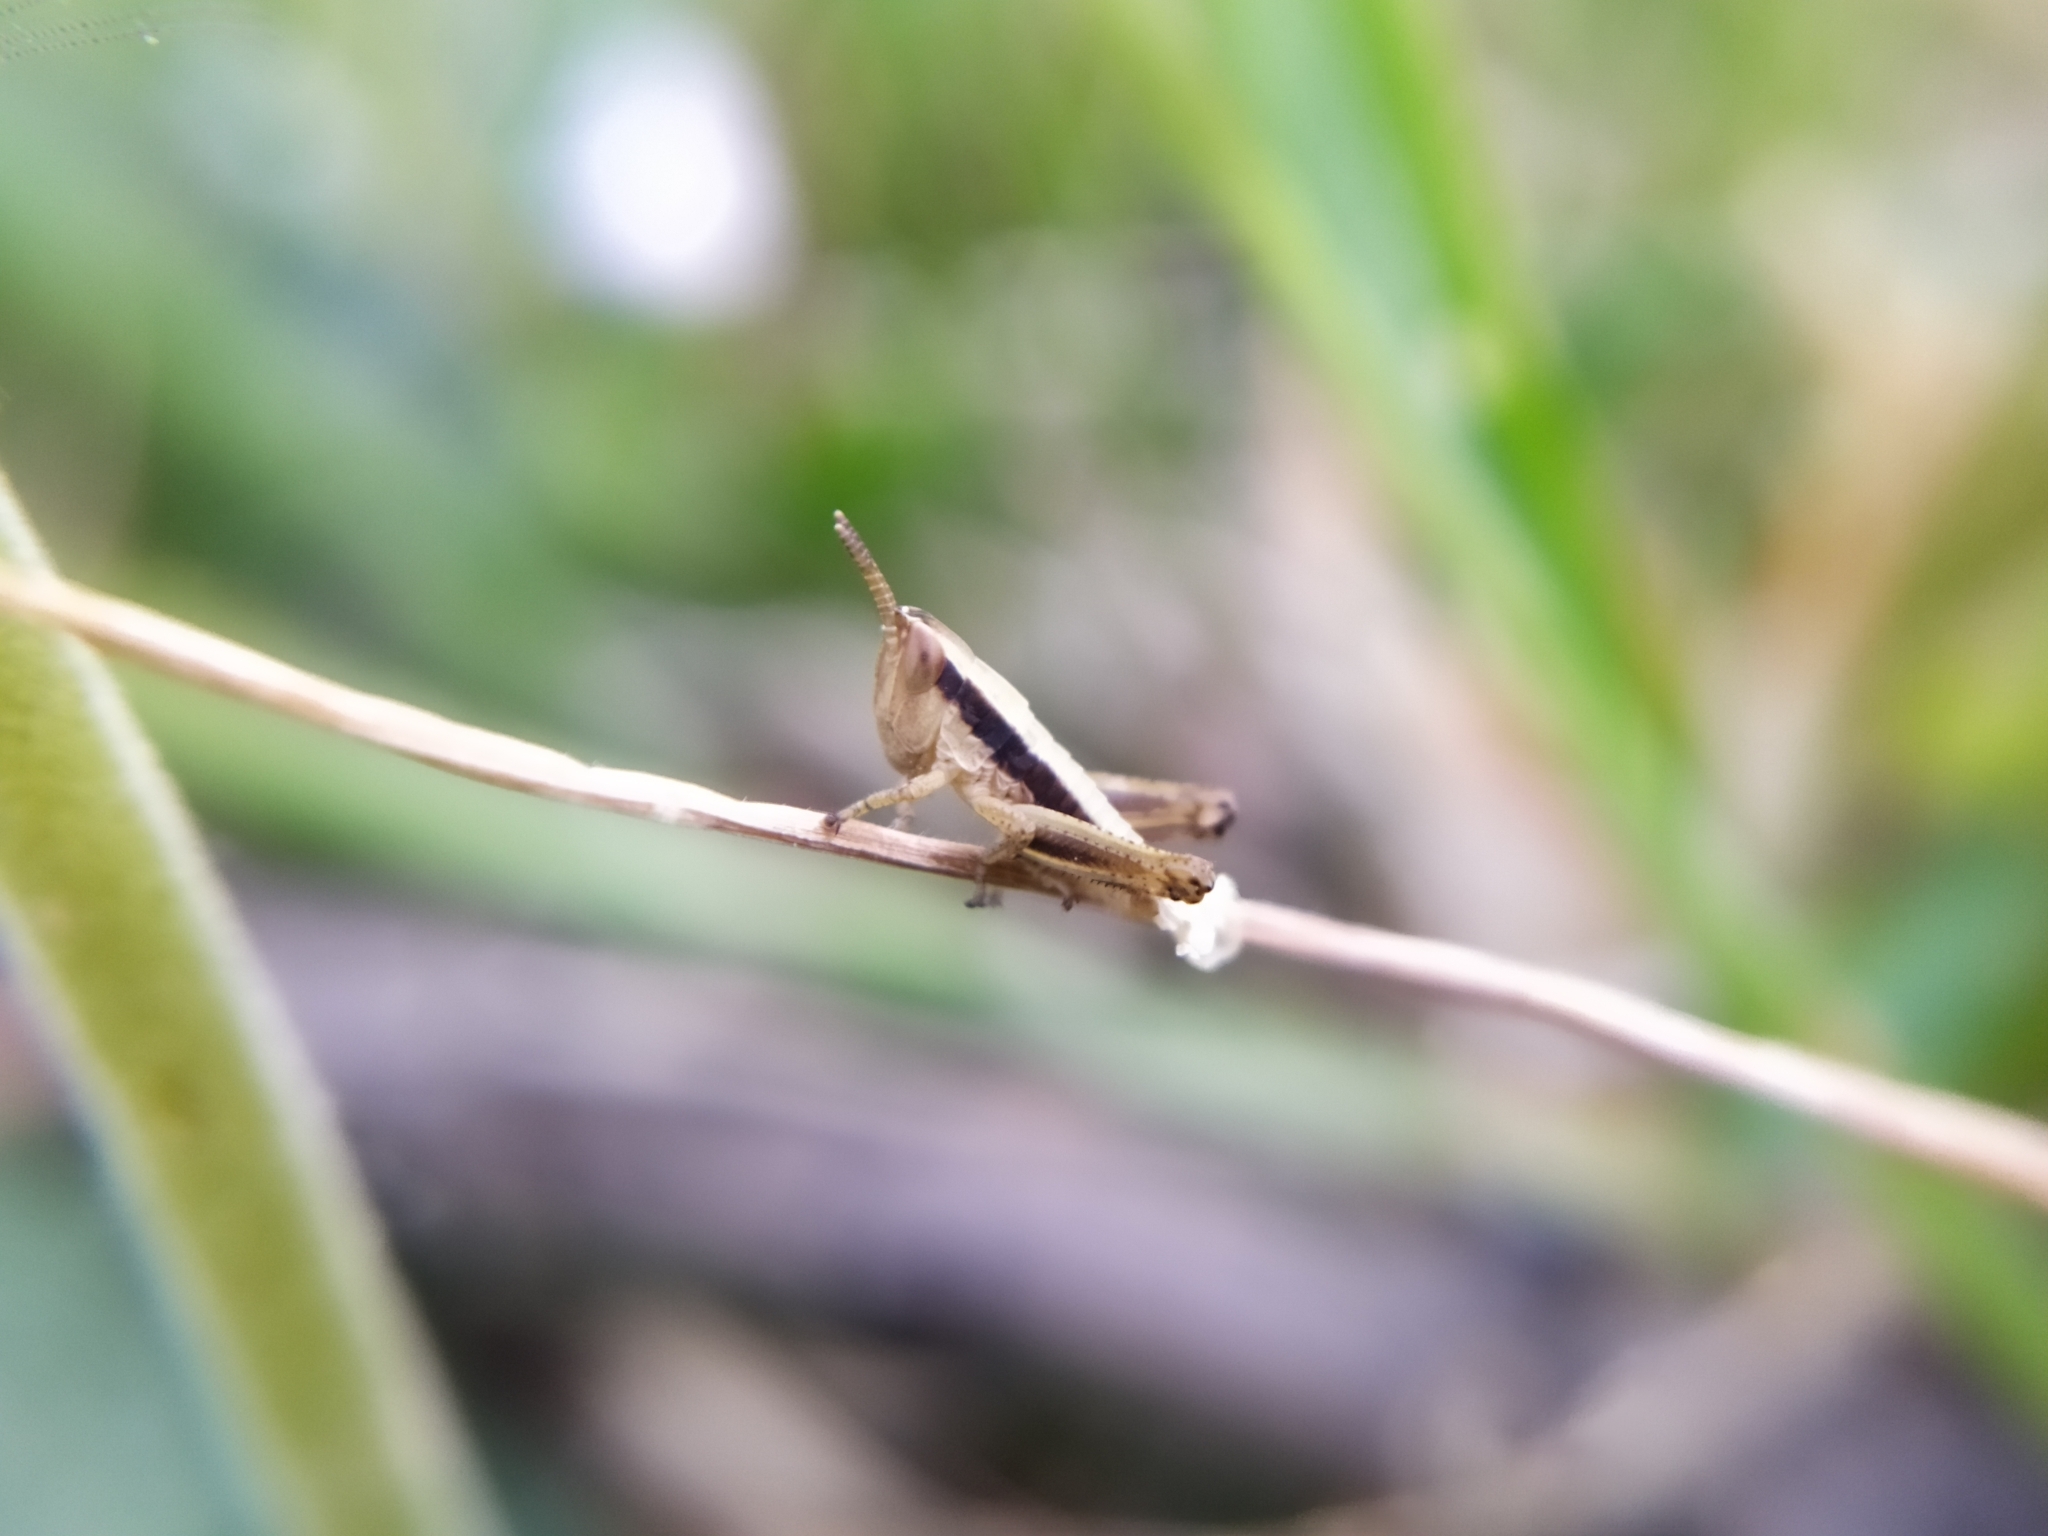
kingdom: Animalia
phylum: Arthropoda
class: Insecta
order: Orthoptera
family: Acrididae
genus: Euchorthippus
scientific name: Euchorthippus declivus
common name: Common straw grasshopper
